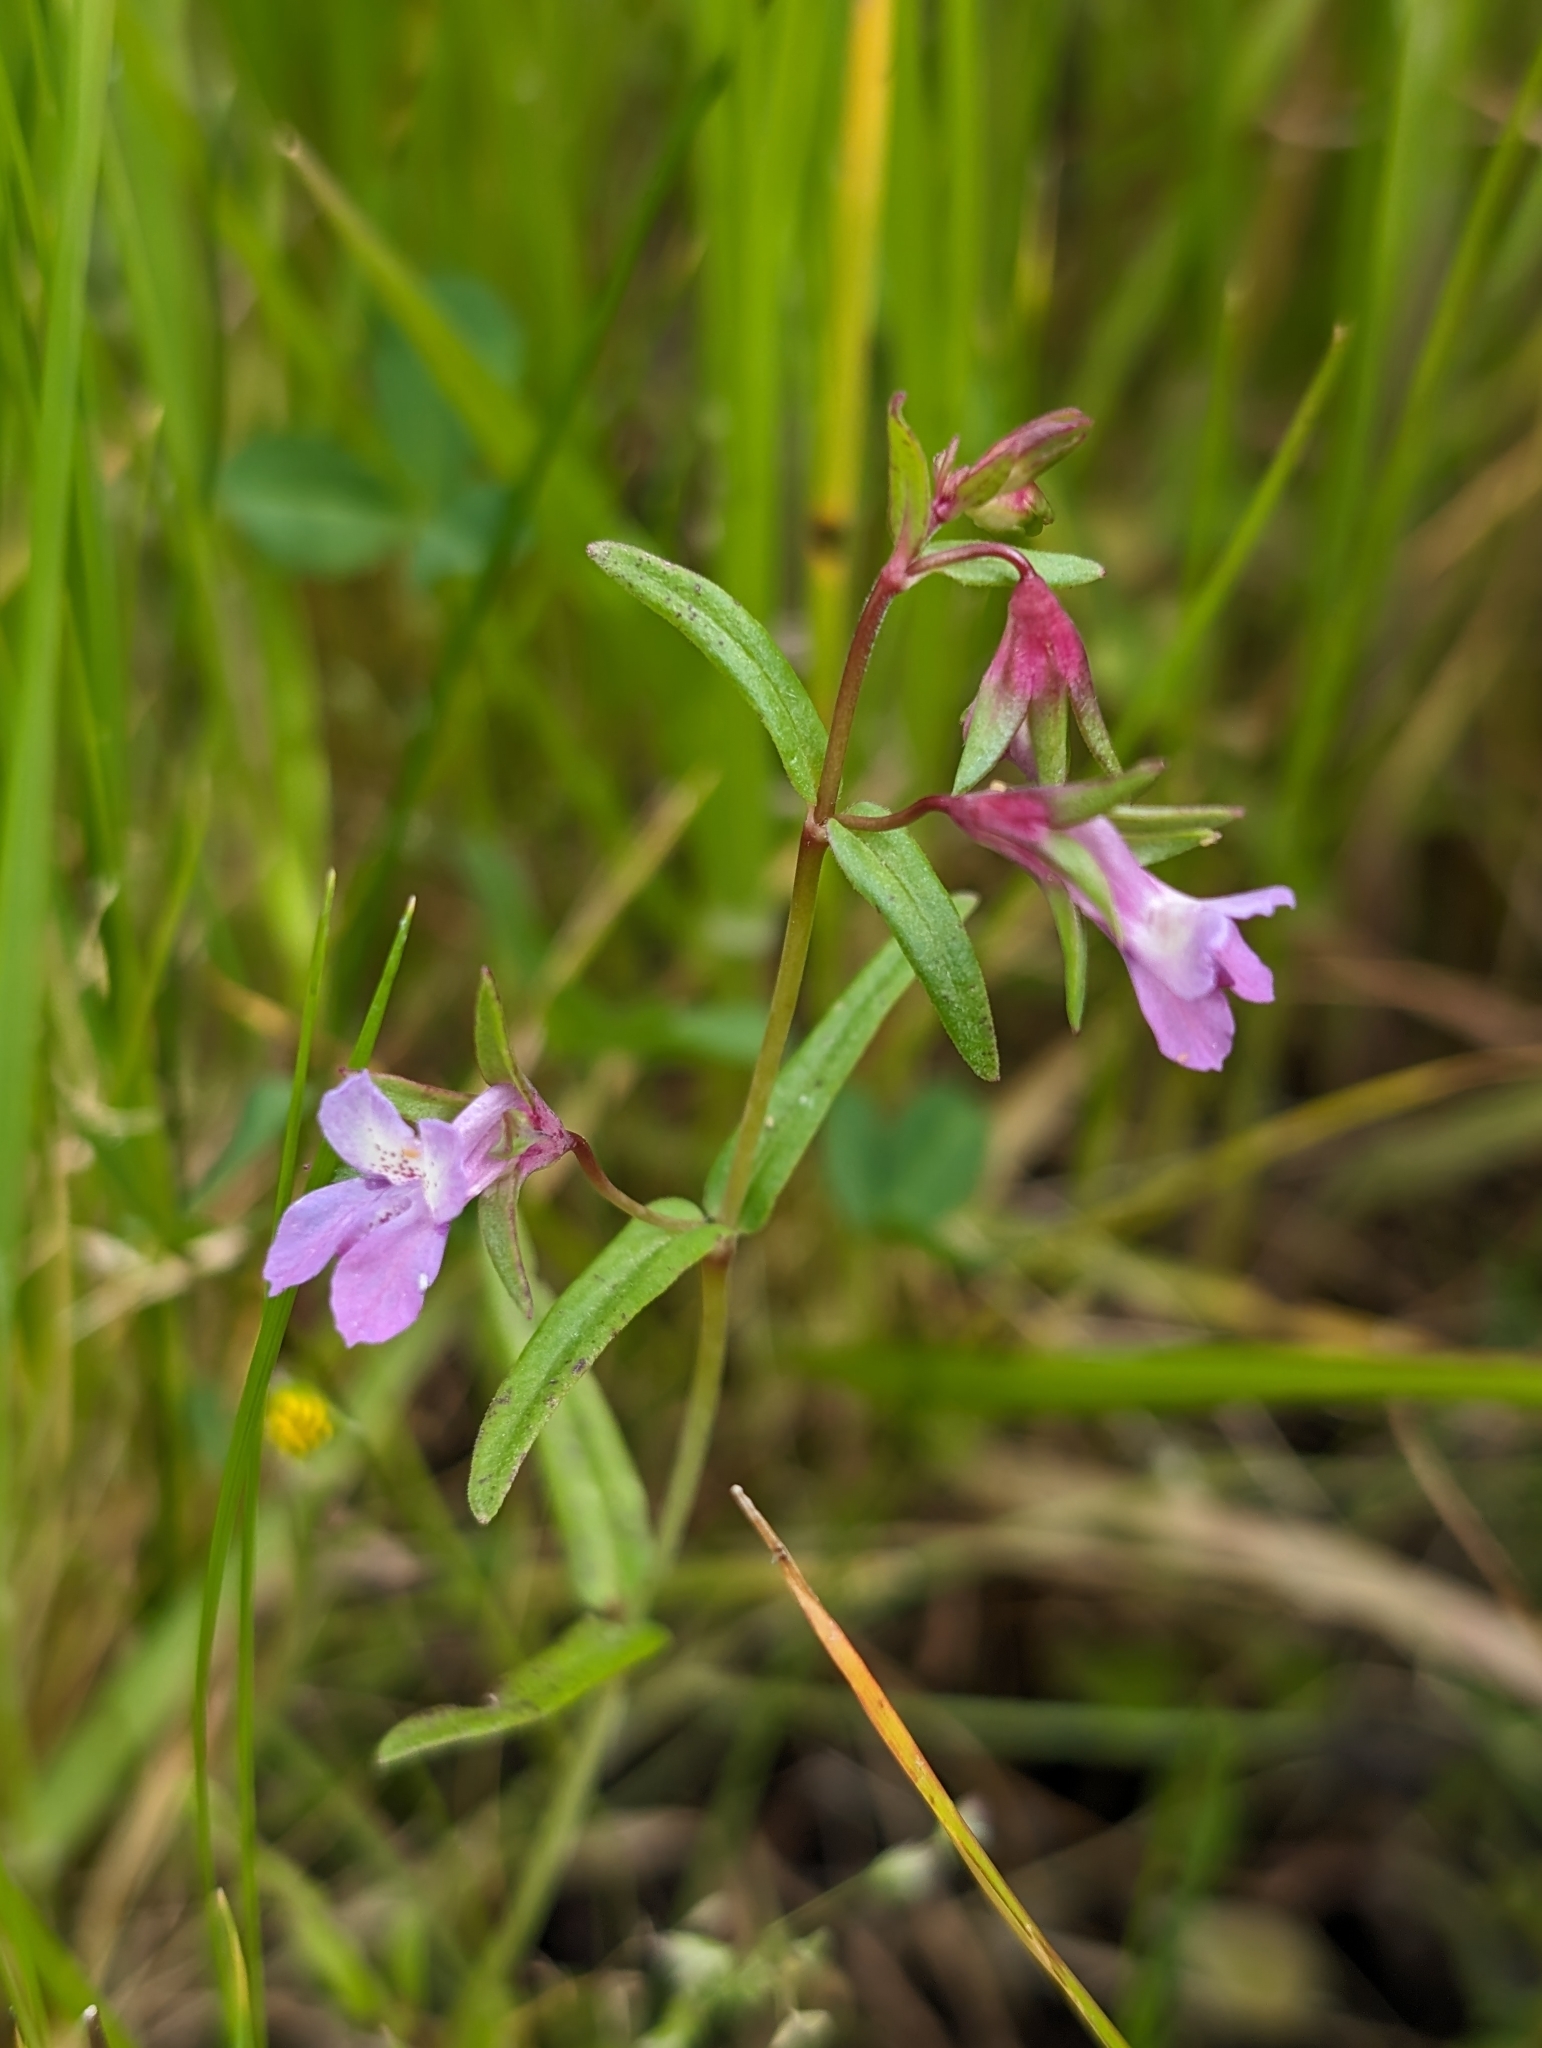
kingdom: Plantae
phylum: Tracheophyta
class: Magnoliopsida
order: Lamiales
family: Plantaginaceae
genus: Collinsia
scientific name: Collinsia sparsiflora
